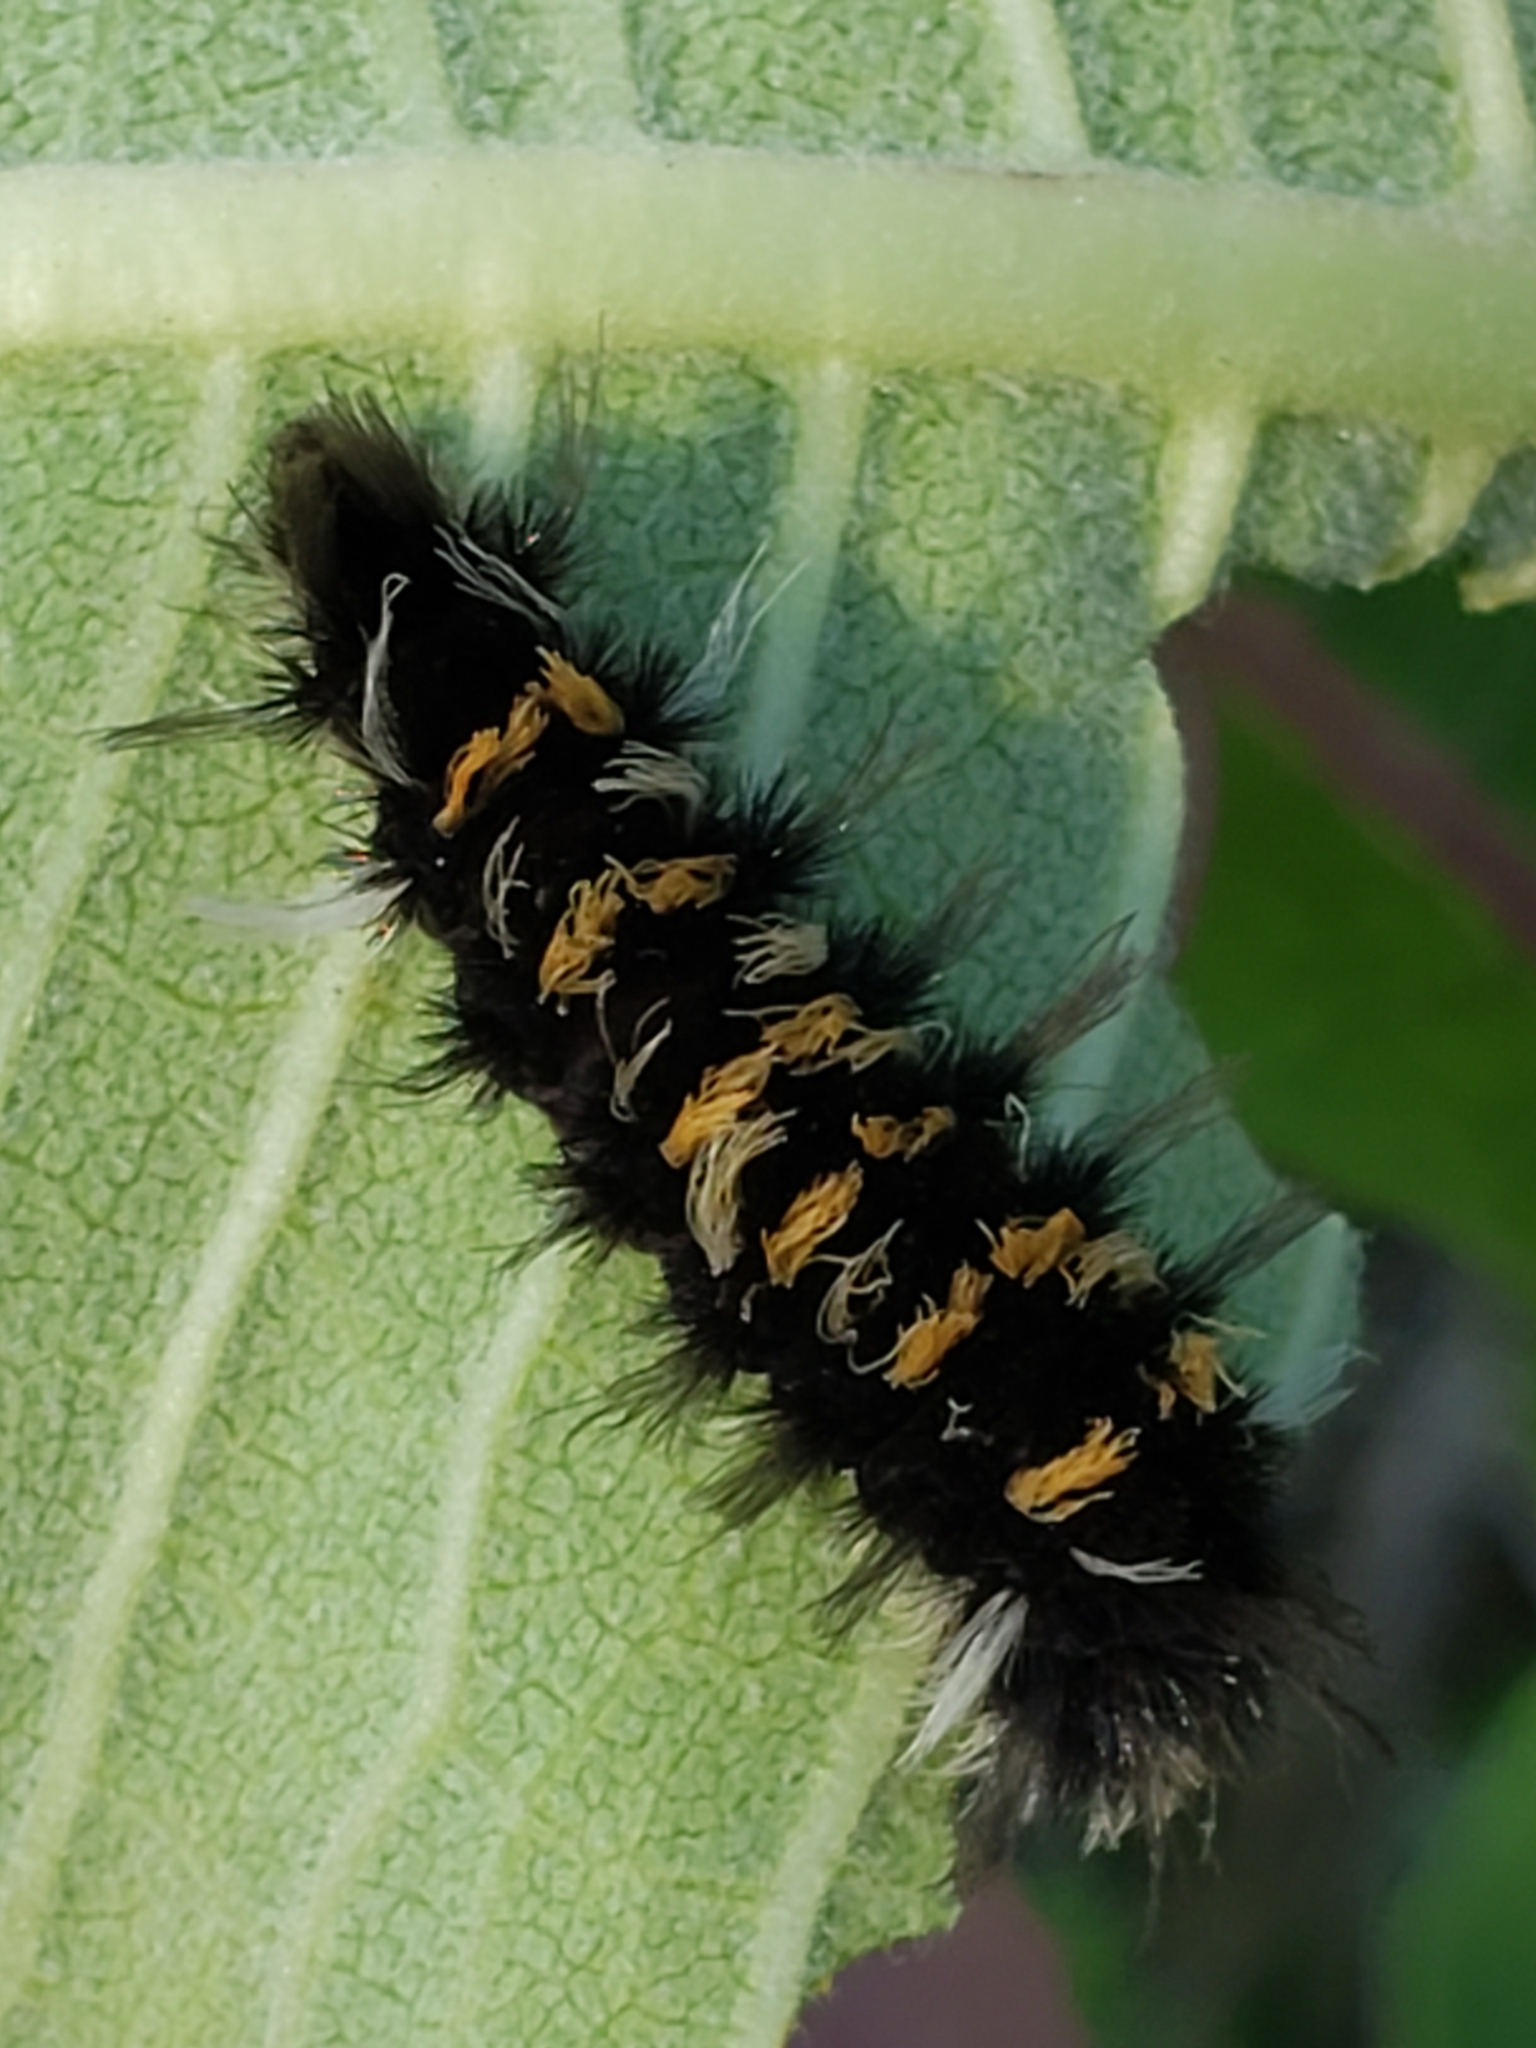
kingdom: Animalia
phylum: Arthropoda
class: Insecta
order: Lepidoptera
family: Erebidae
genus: Euchaetes
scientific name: Euchaetes egle
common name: Milkweed tussock moth
